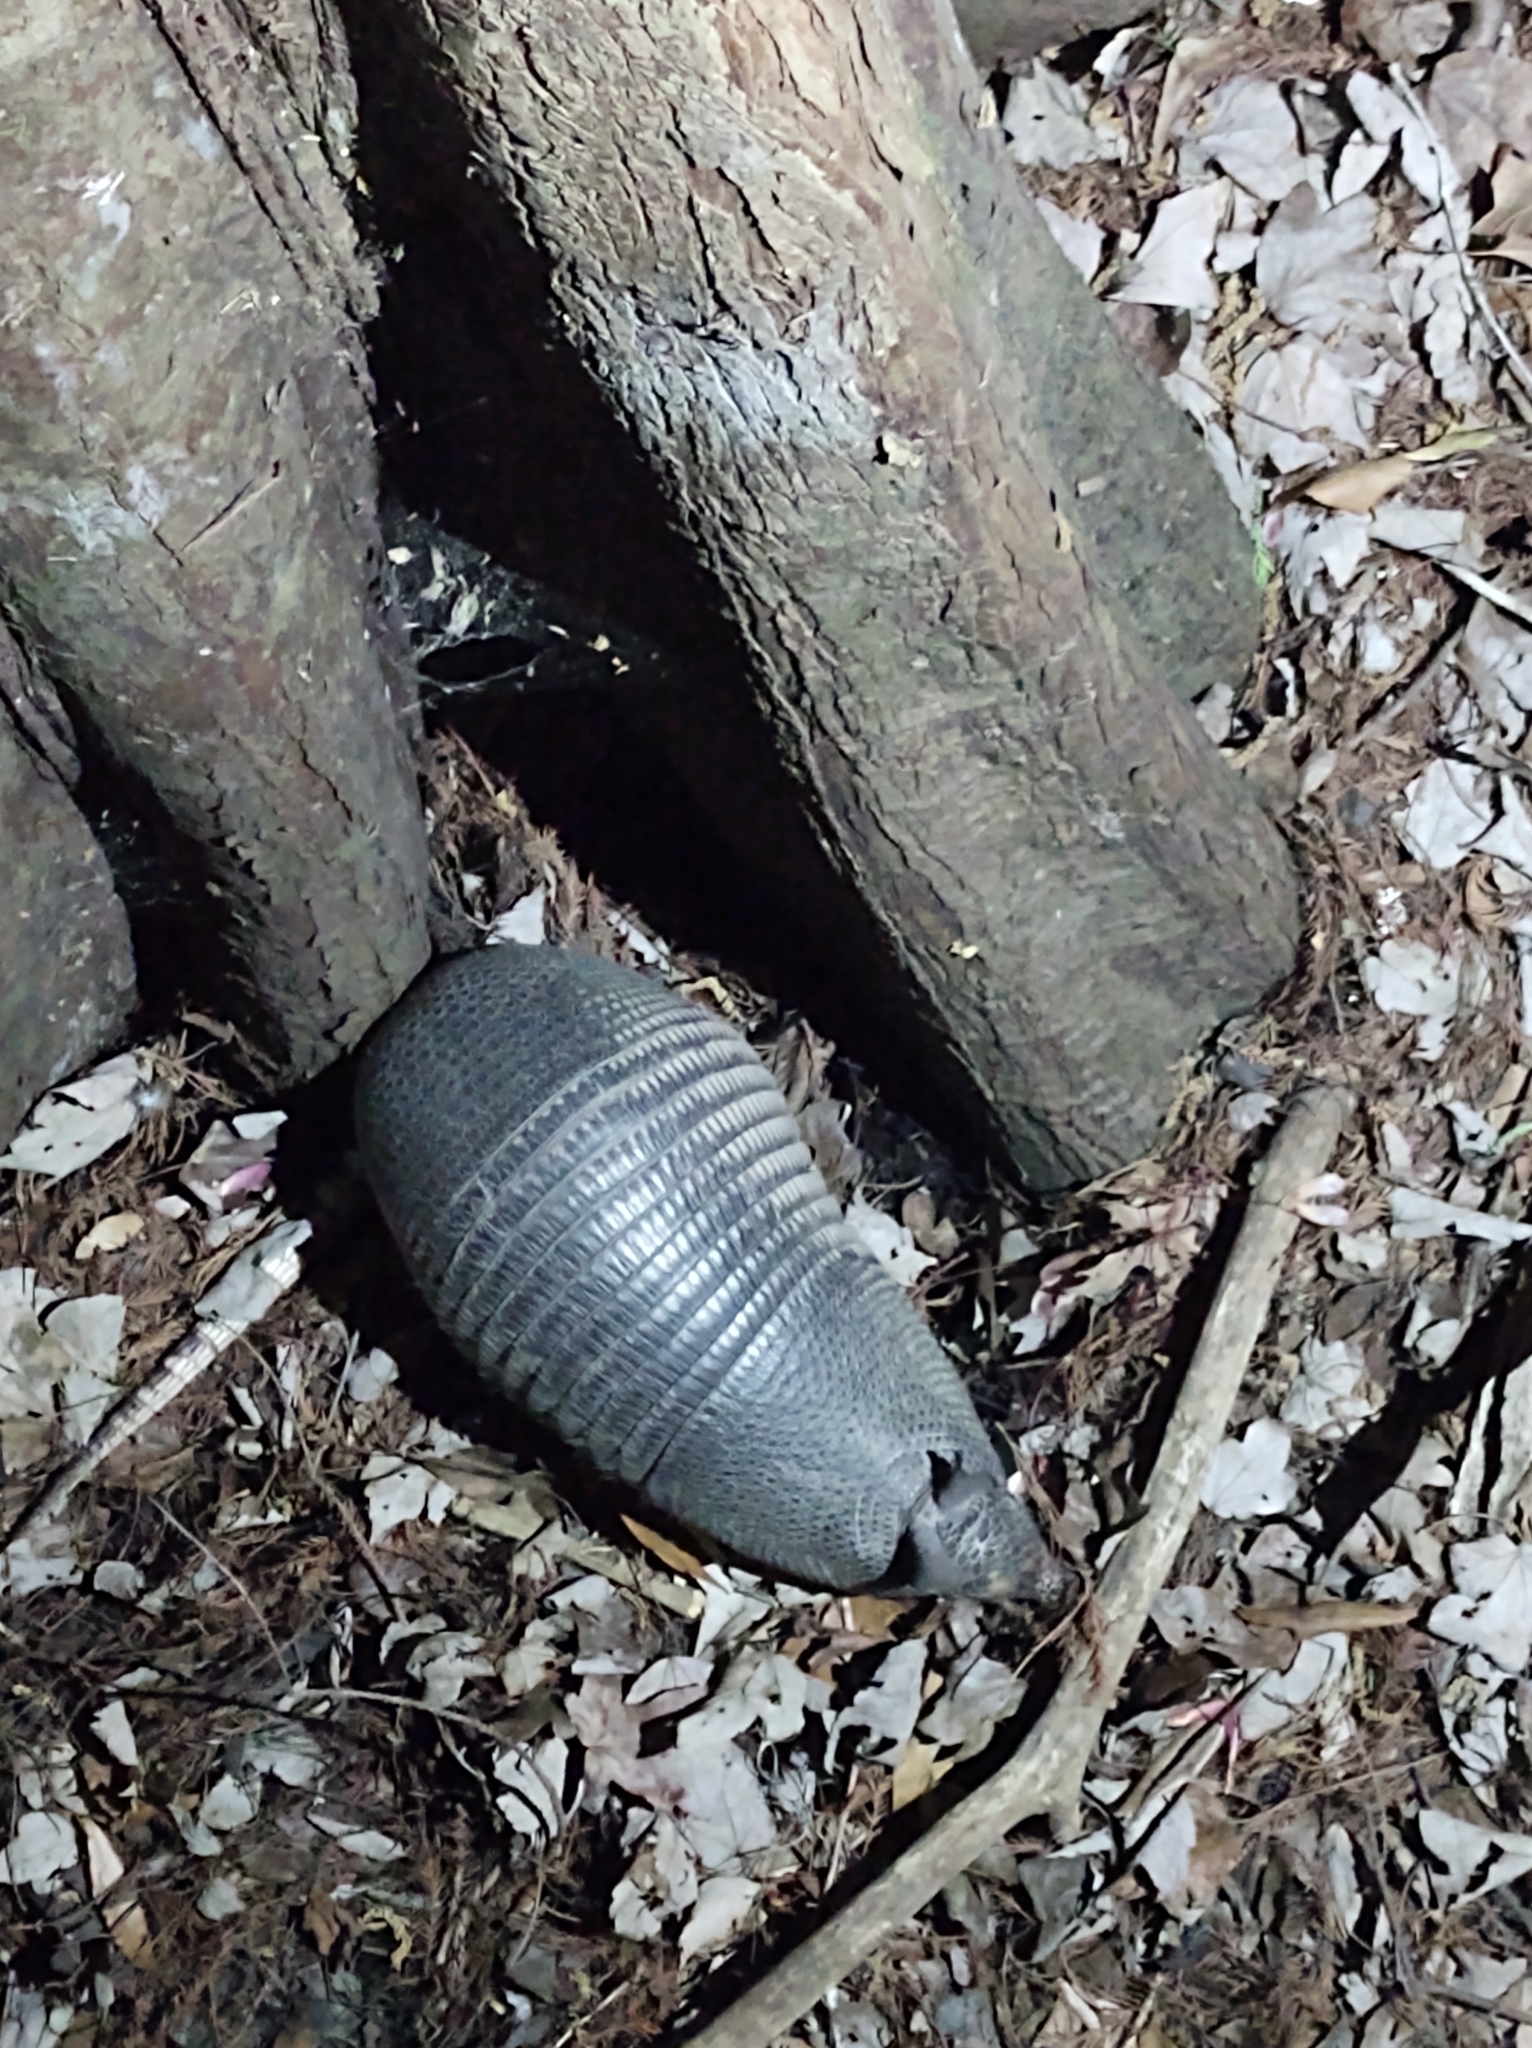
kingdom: Animalia
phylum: Chordata
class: Mammalia
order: Cingulata
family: Dasypodidae
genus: Dasypus
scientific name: Dasypus novemcinctus
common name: Nine-banded armadillo
